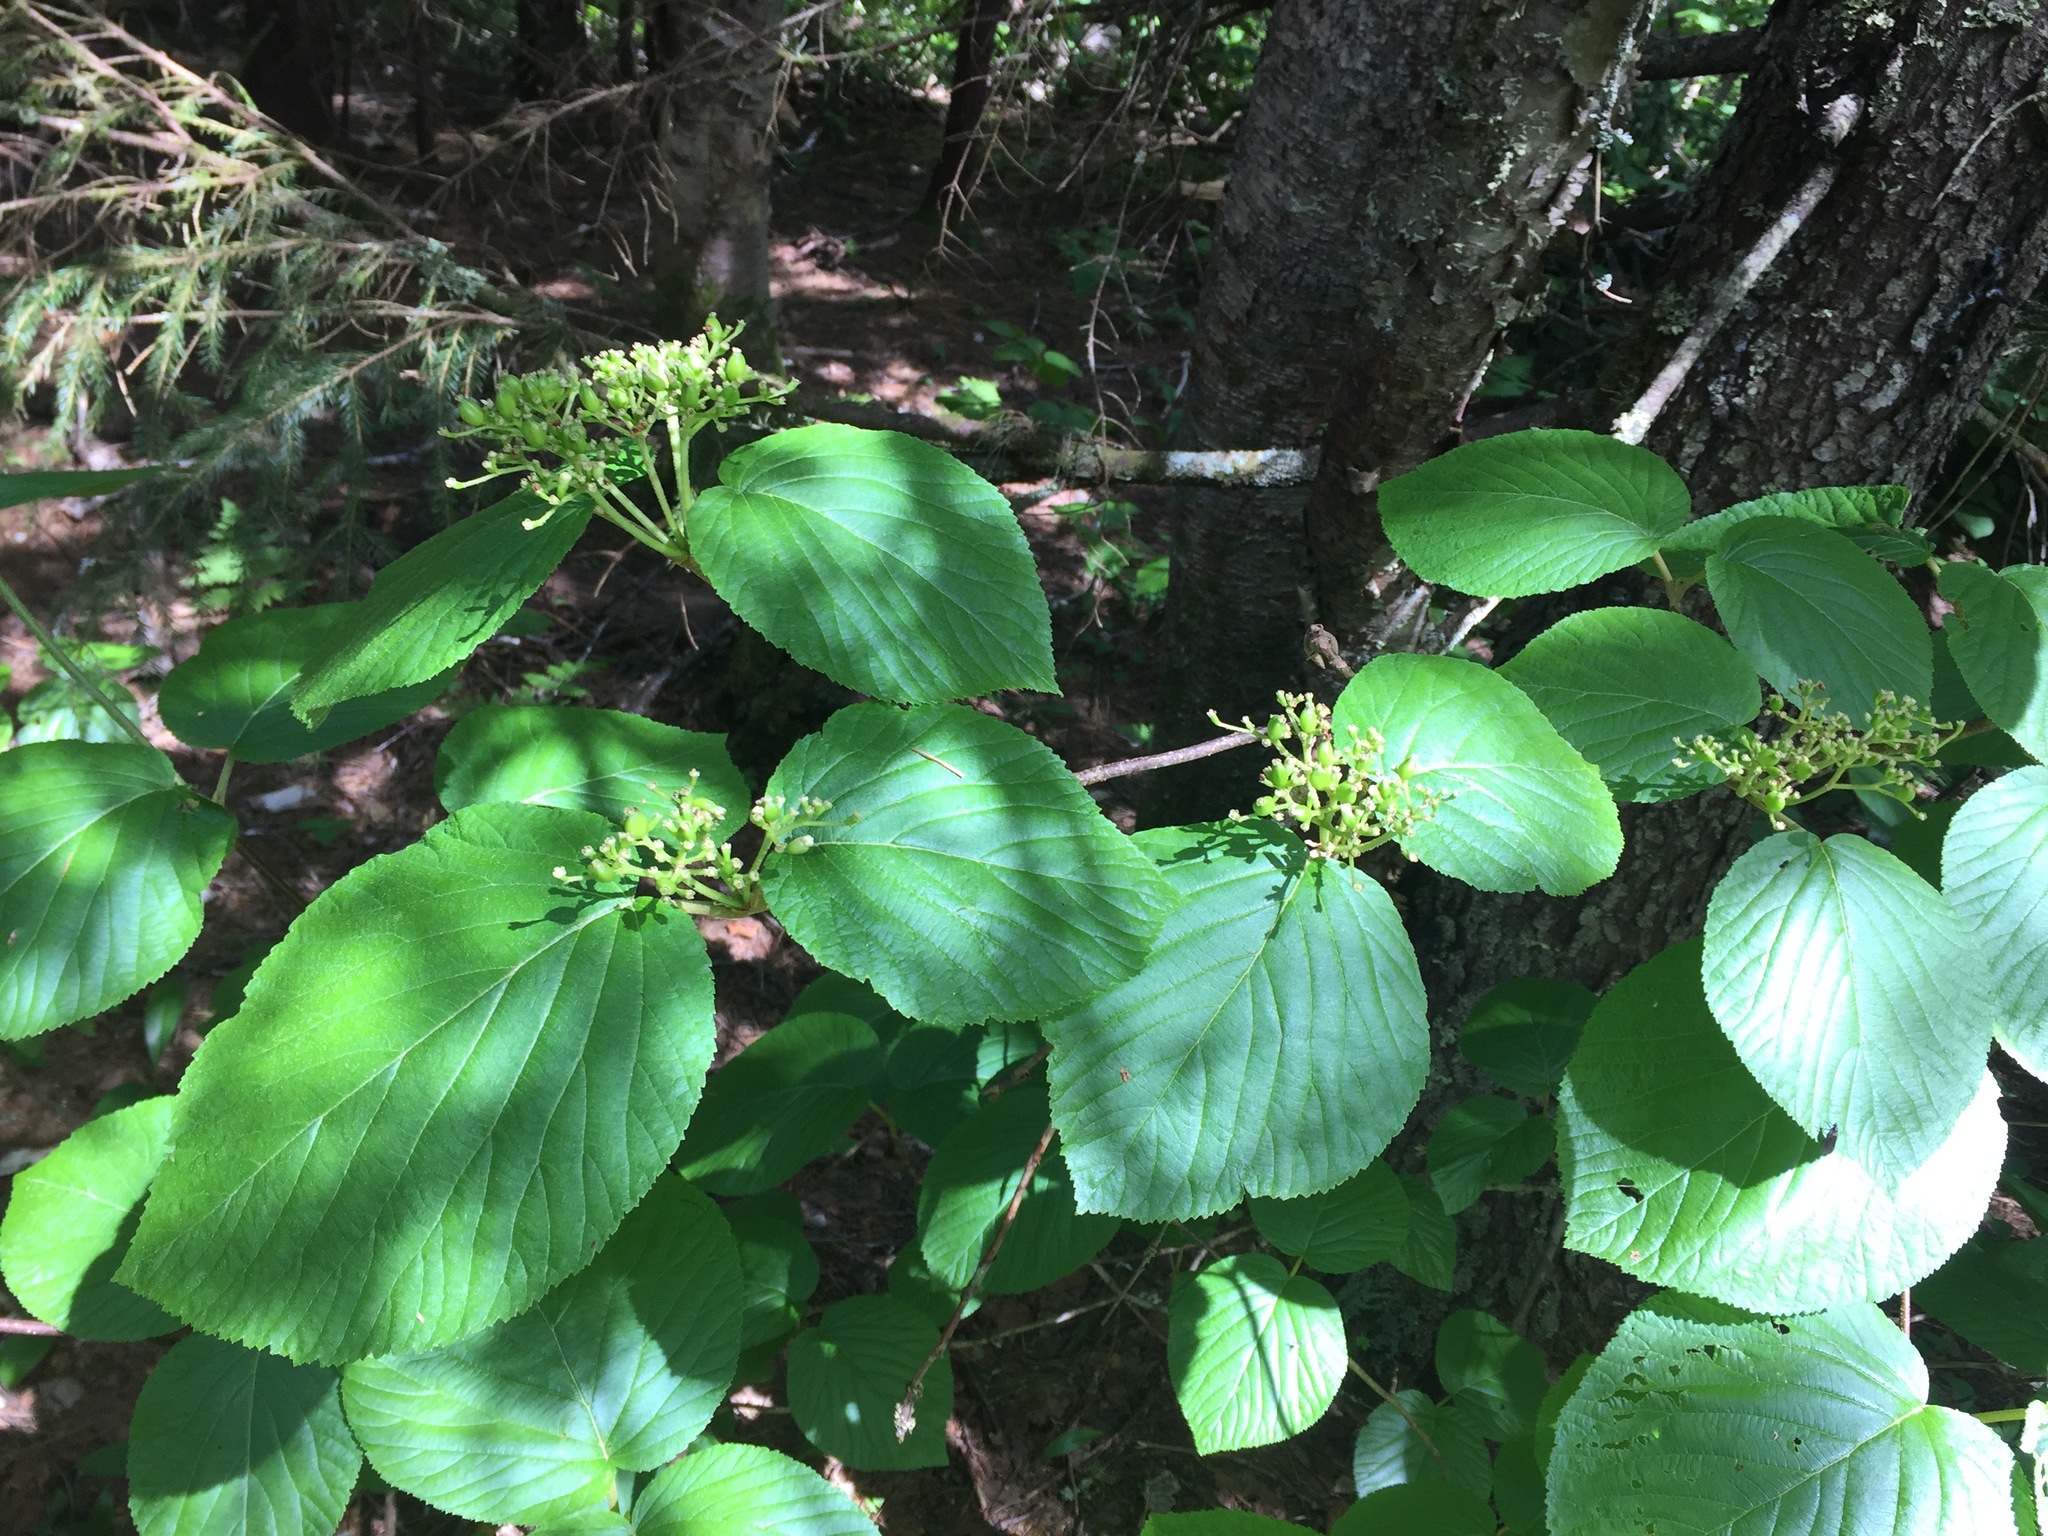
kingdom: Plantae
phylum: Tracheophyta
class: Magnoliopsida
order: Dipsacales
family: Viburnaceae
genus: Viburnum
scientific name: Viburnum lantanoides
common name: Hobblebush
